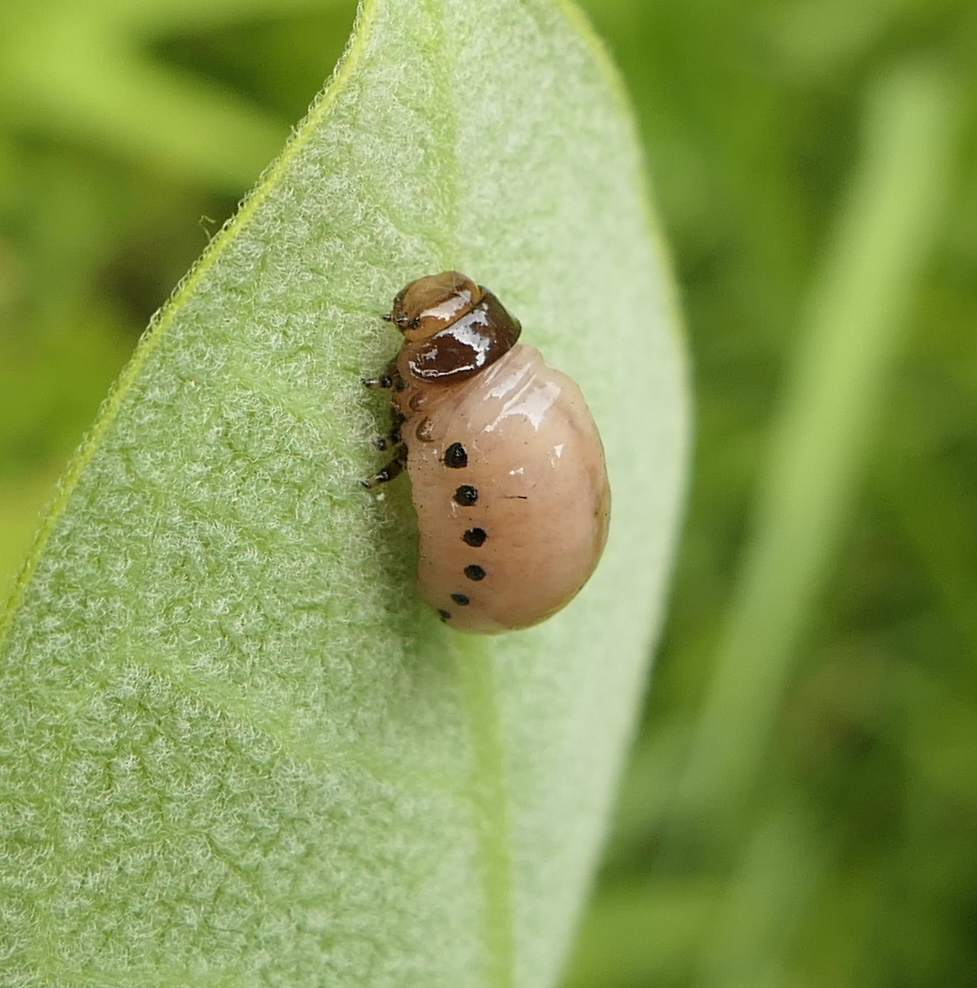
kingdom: Animalia
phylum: Arthropoda
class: Insecta
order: Coleoptera
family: Chrysomelidae
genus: Labidomera
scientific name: Labidomera clivicollis
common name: Swamp milkweed leaf beetle
